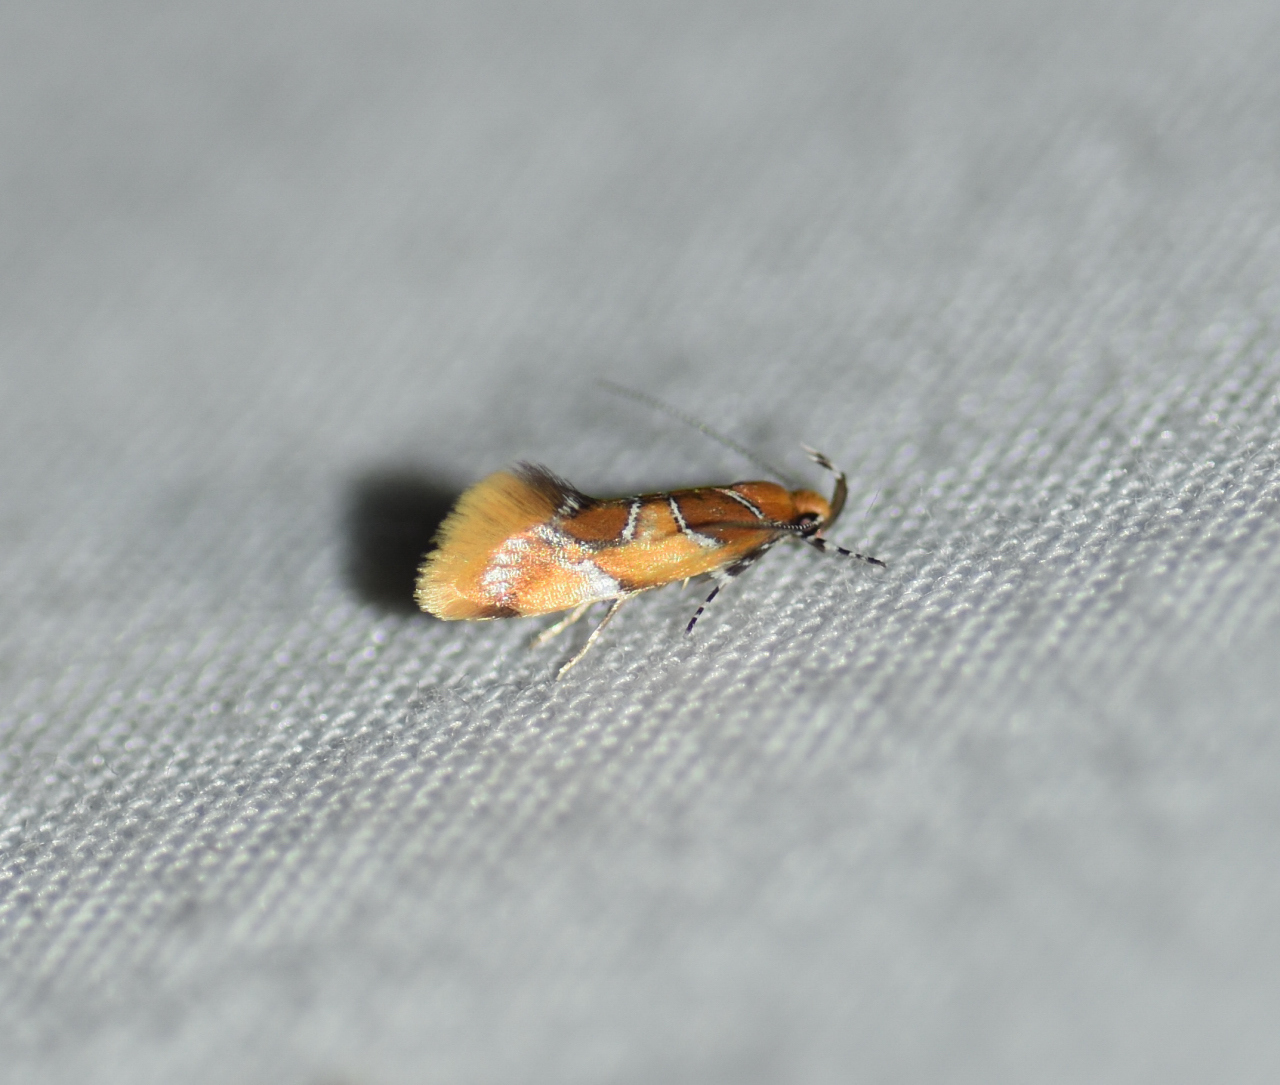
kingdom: Animalia
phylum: Arthropoda
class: Insecta
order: Lepidoptera
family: Oecophoridae
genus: Callima
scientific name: Callima argenticinctella
